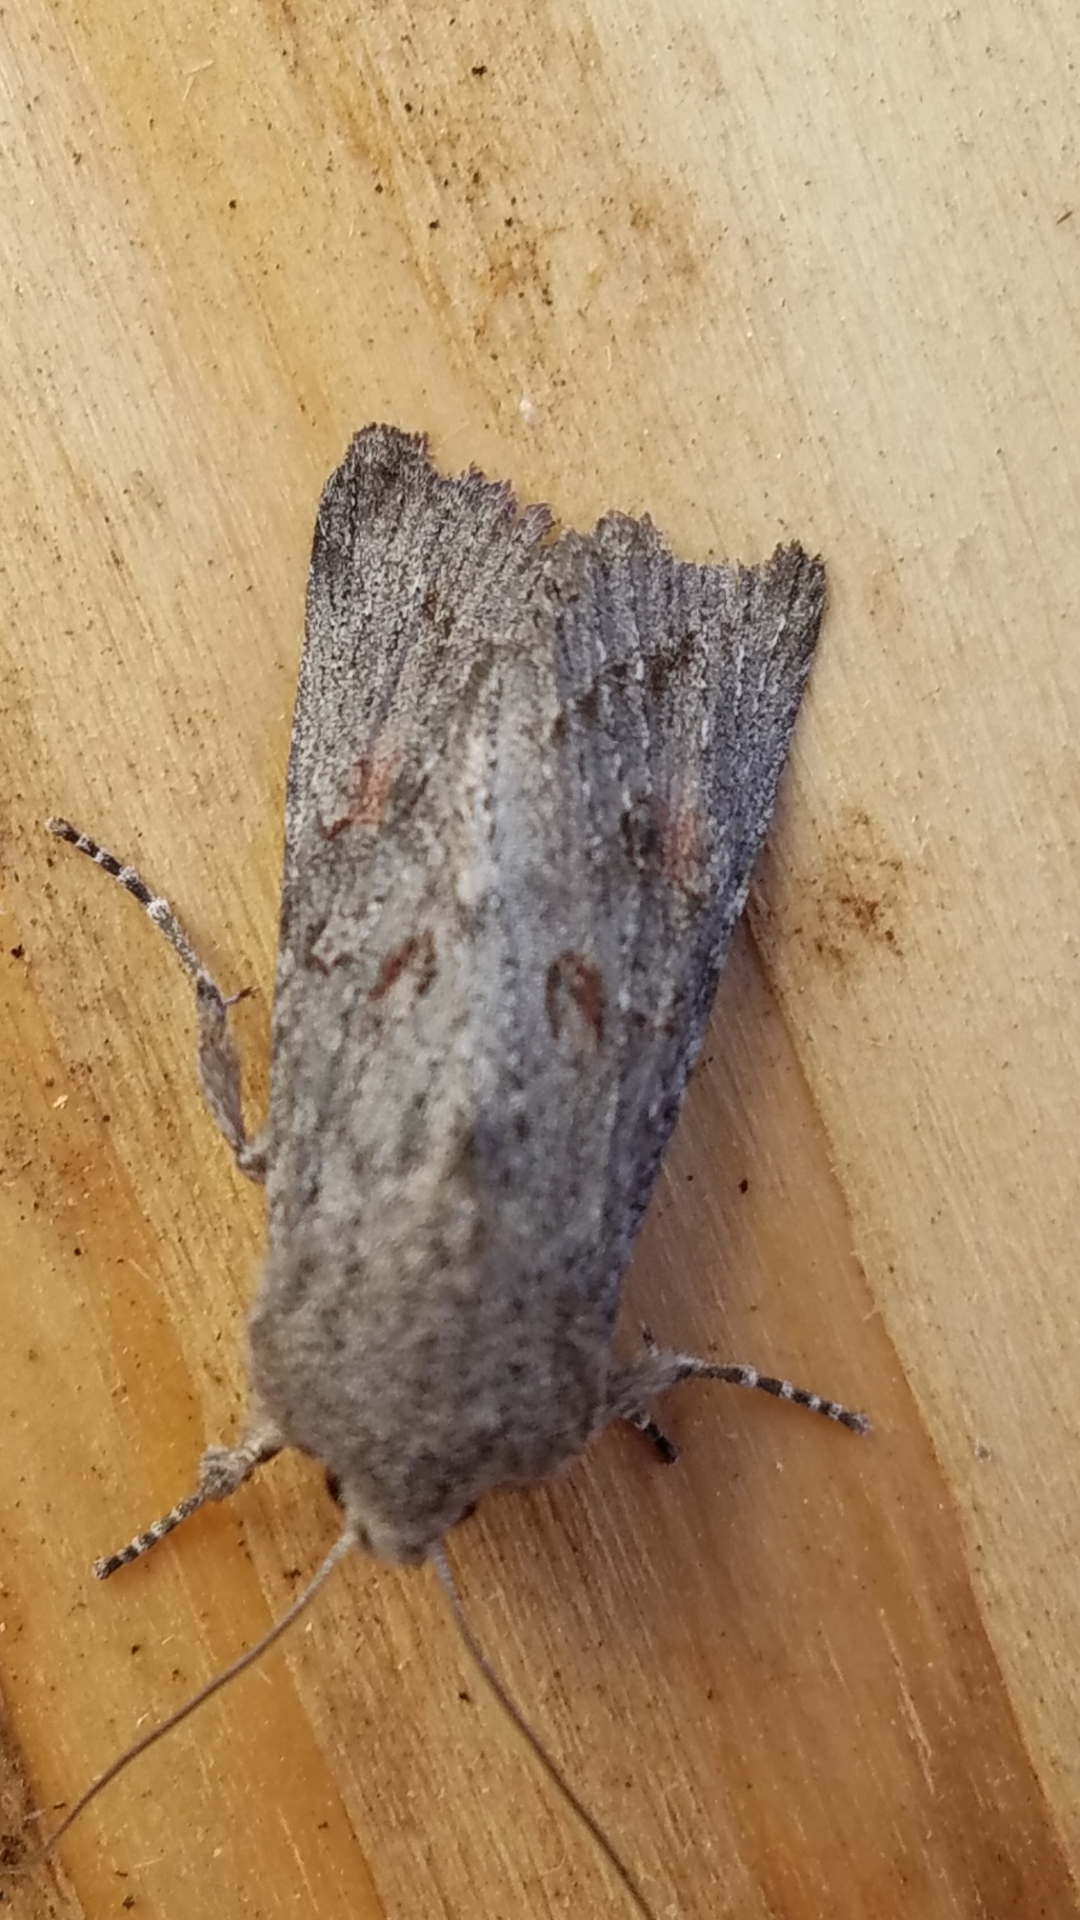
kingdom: Animalia
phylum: Arthropoda
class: Insecta
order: Lepidoptera
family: Noctuidae
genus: Egira
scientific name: Egira curialis
